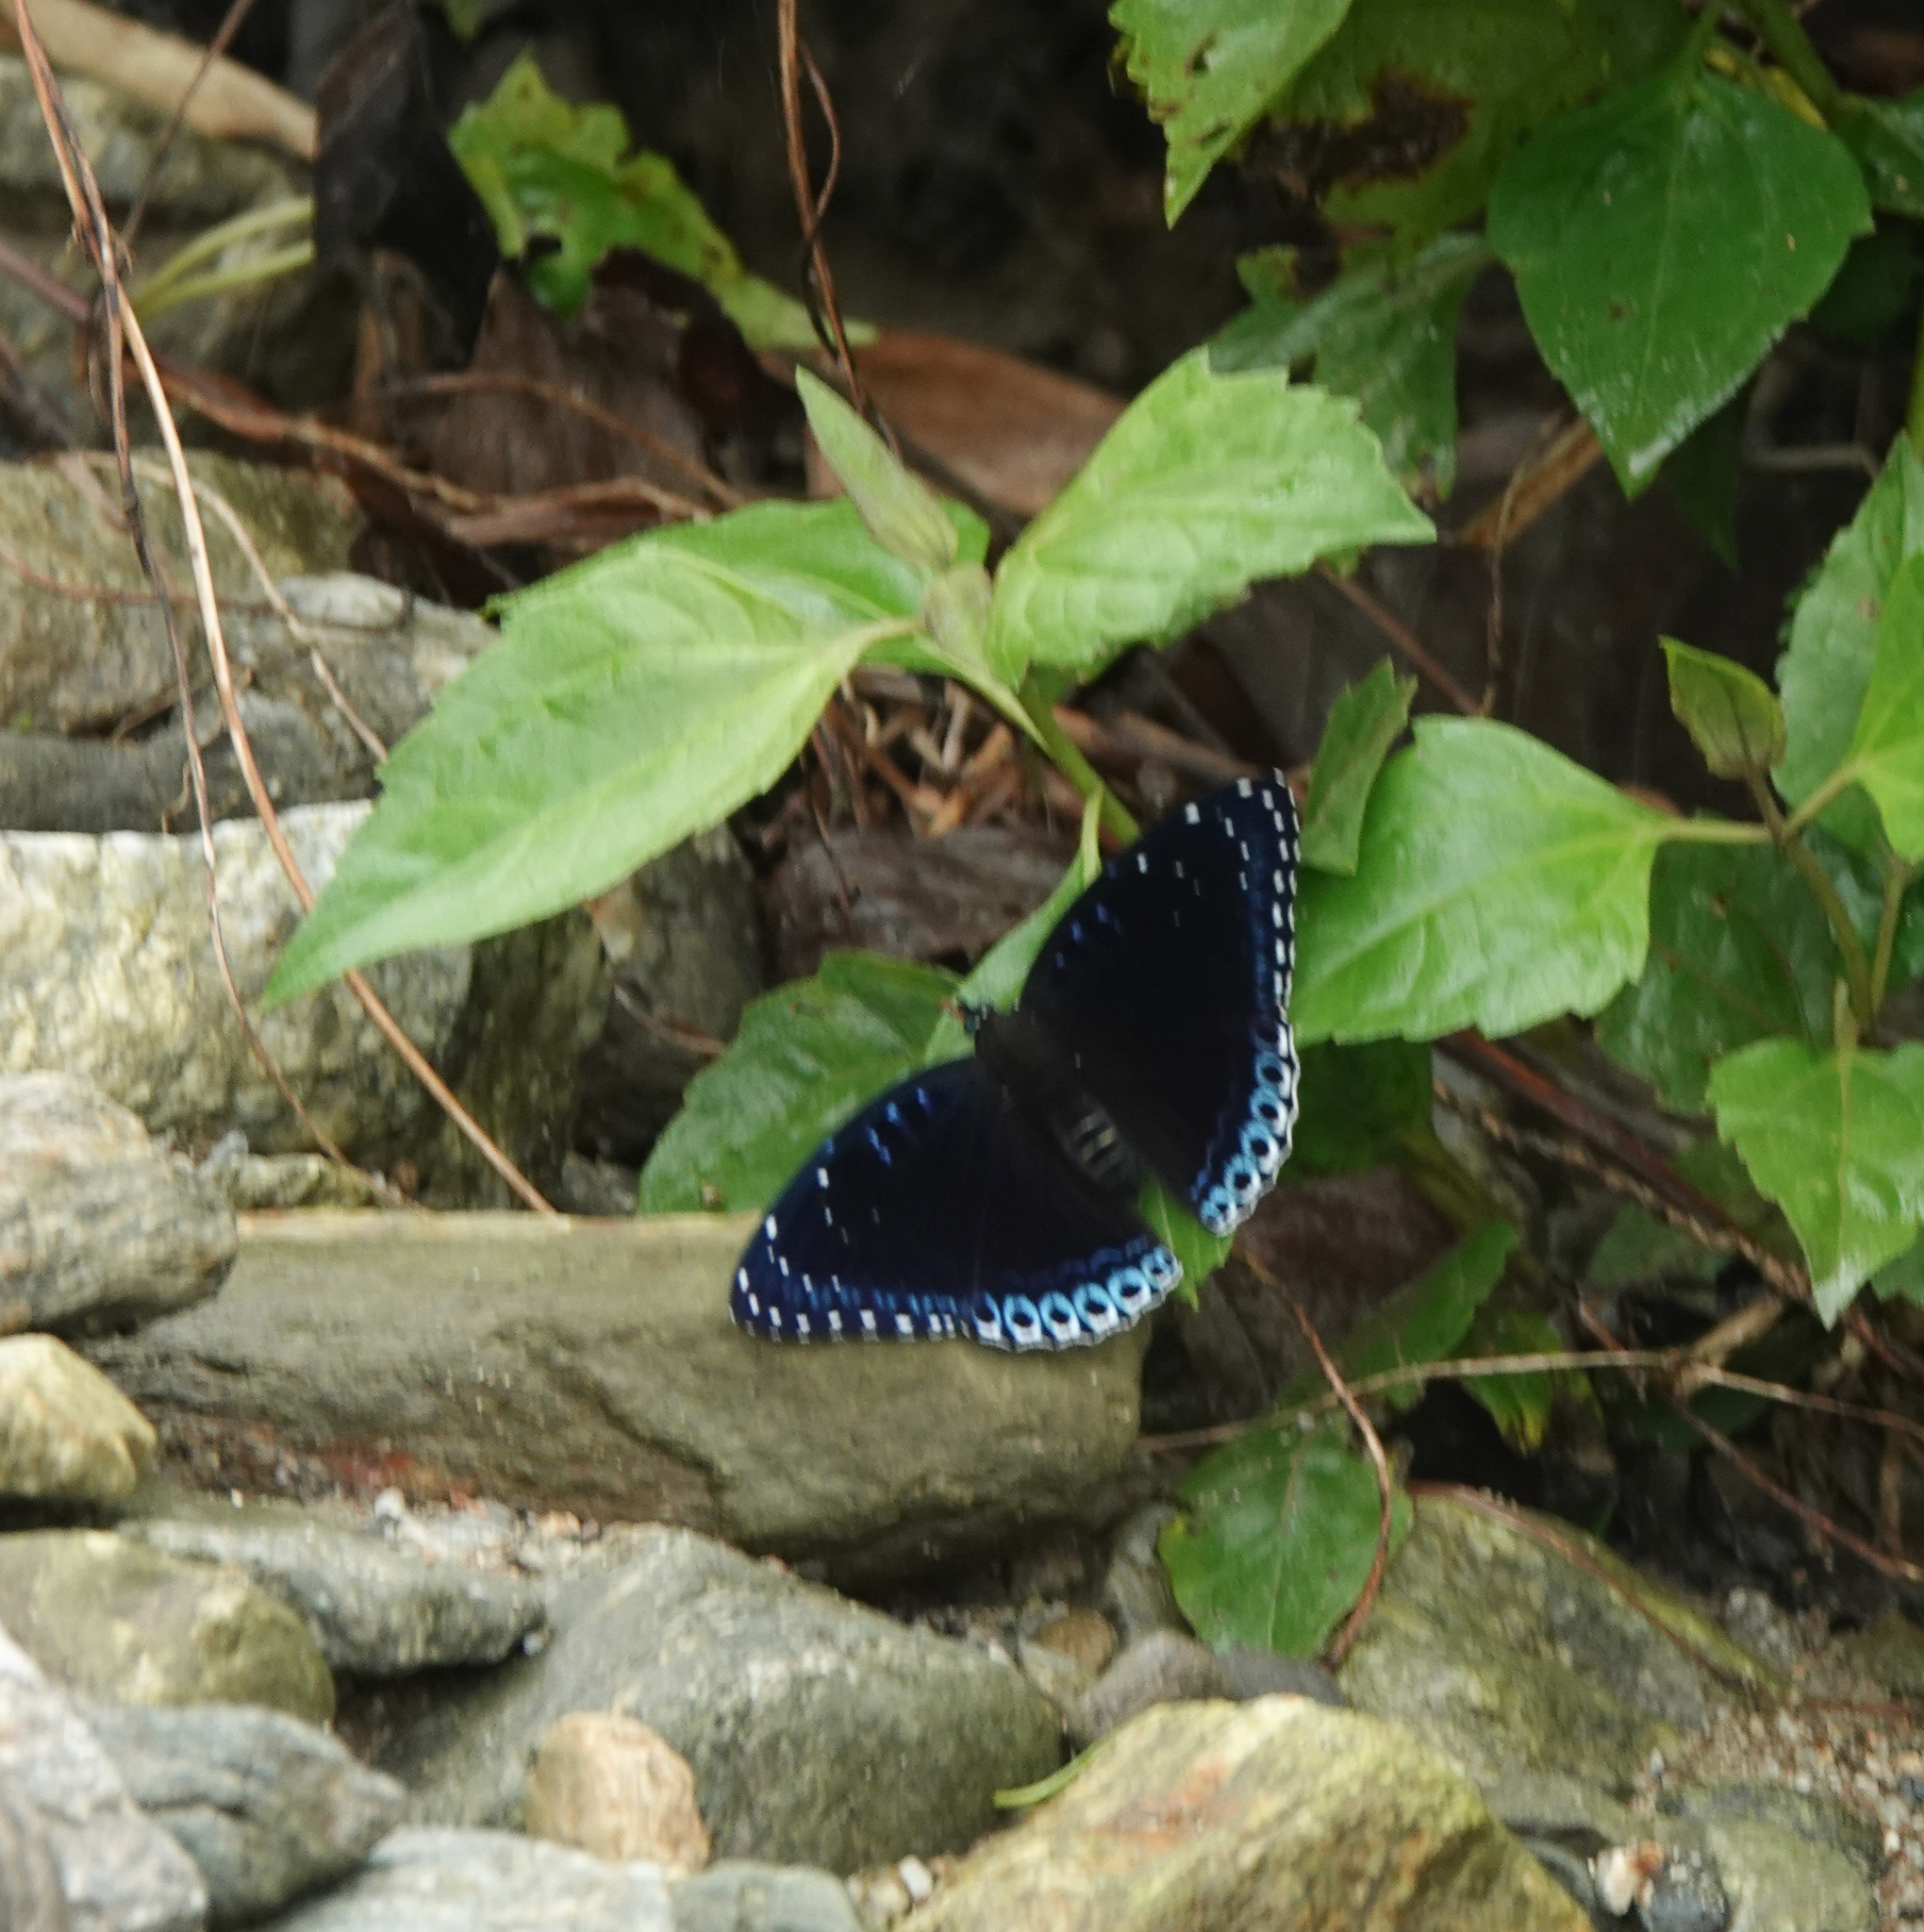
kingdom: Animalia
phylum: Arthropoda
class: Insecta
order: Lepidoptera
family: Nymphalidae
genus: Stibochiona
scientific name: Stibochiona nicea
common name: Popinjay
